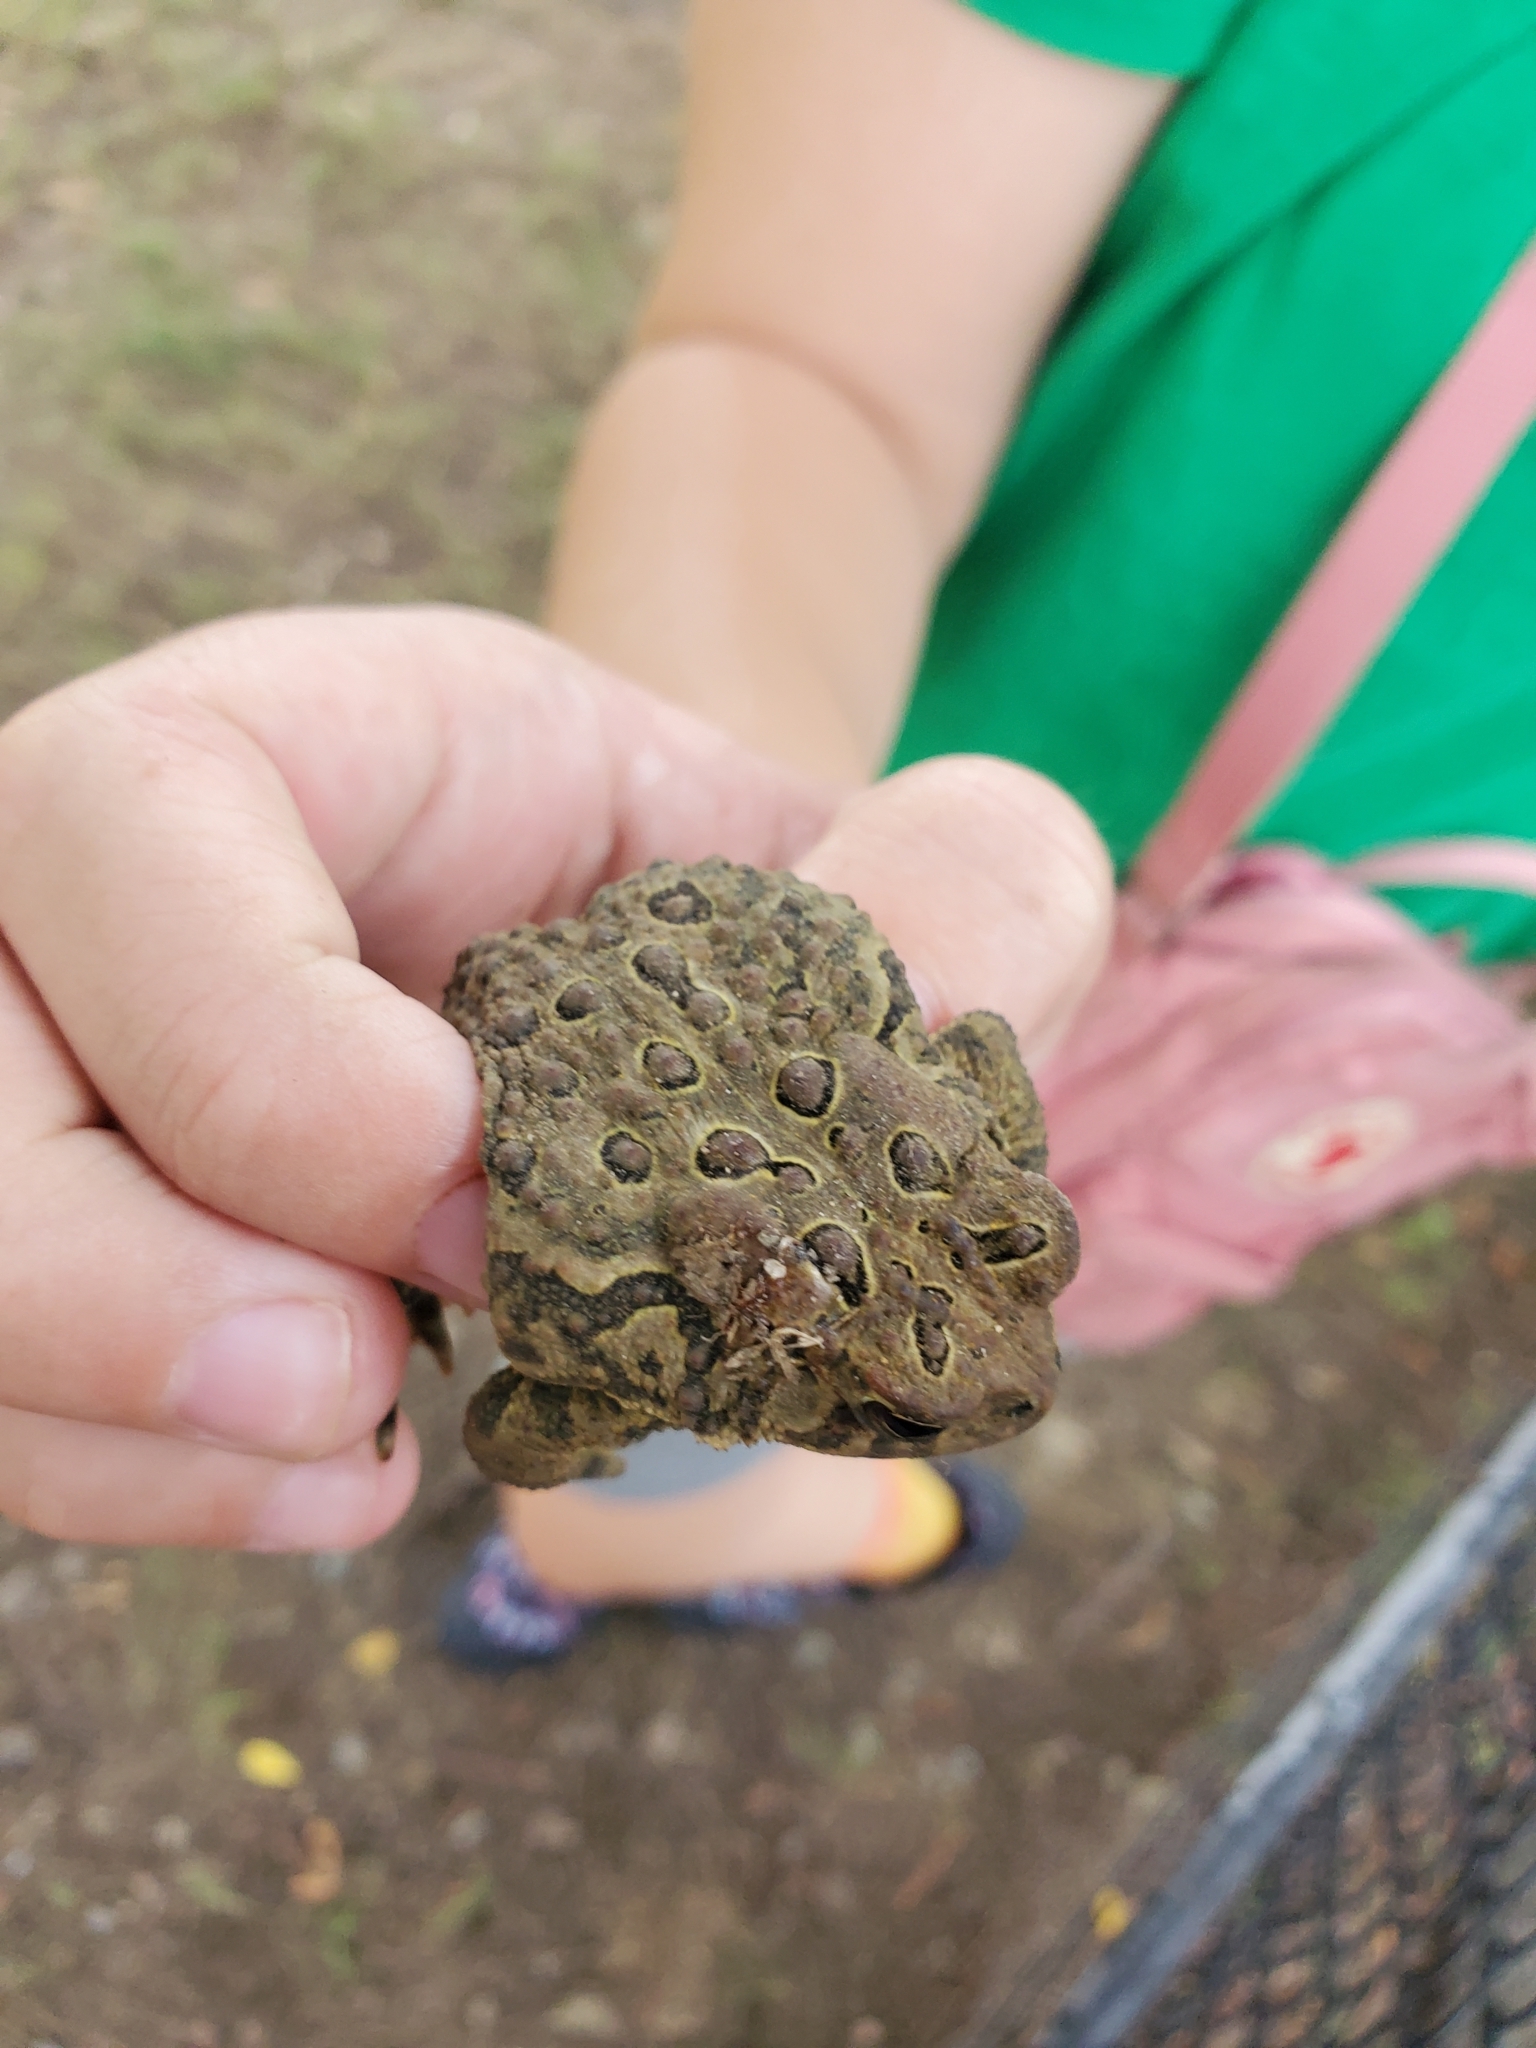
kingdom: Animalia
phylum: Chordata
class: Amphibia
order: Anura
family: Bufonidae
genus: Anaxyrus
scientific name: Anaxyrus americanus
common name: American toad
